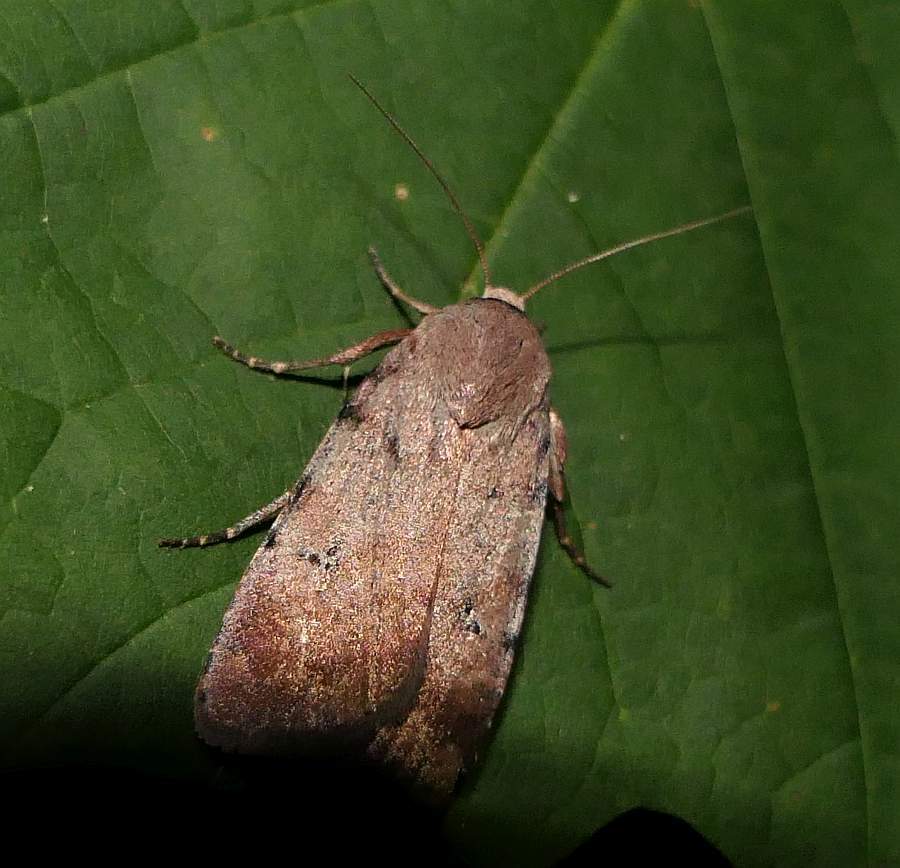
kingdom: Animalia
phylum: Arthropoda
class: Insecta
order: Lepidoptera
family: Noctuidae
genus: Anicla
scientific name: Anicla illapsa
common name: Snowy dart
